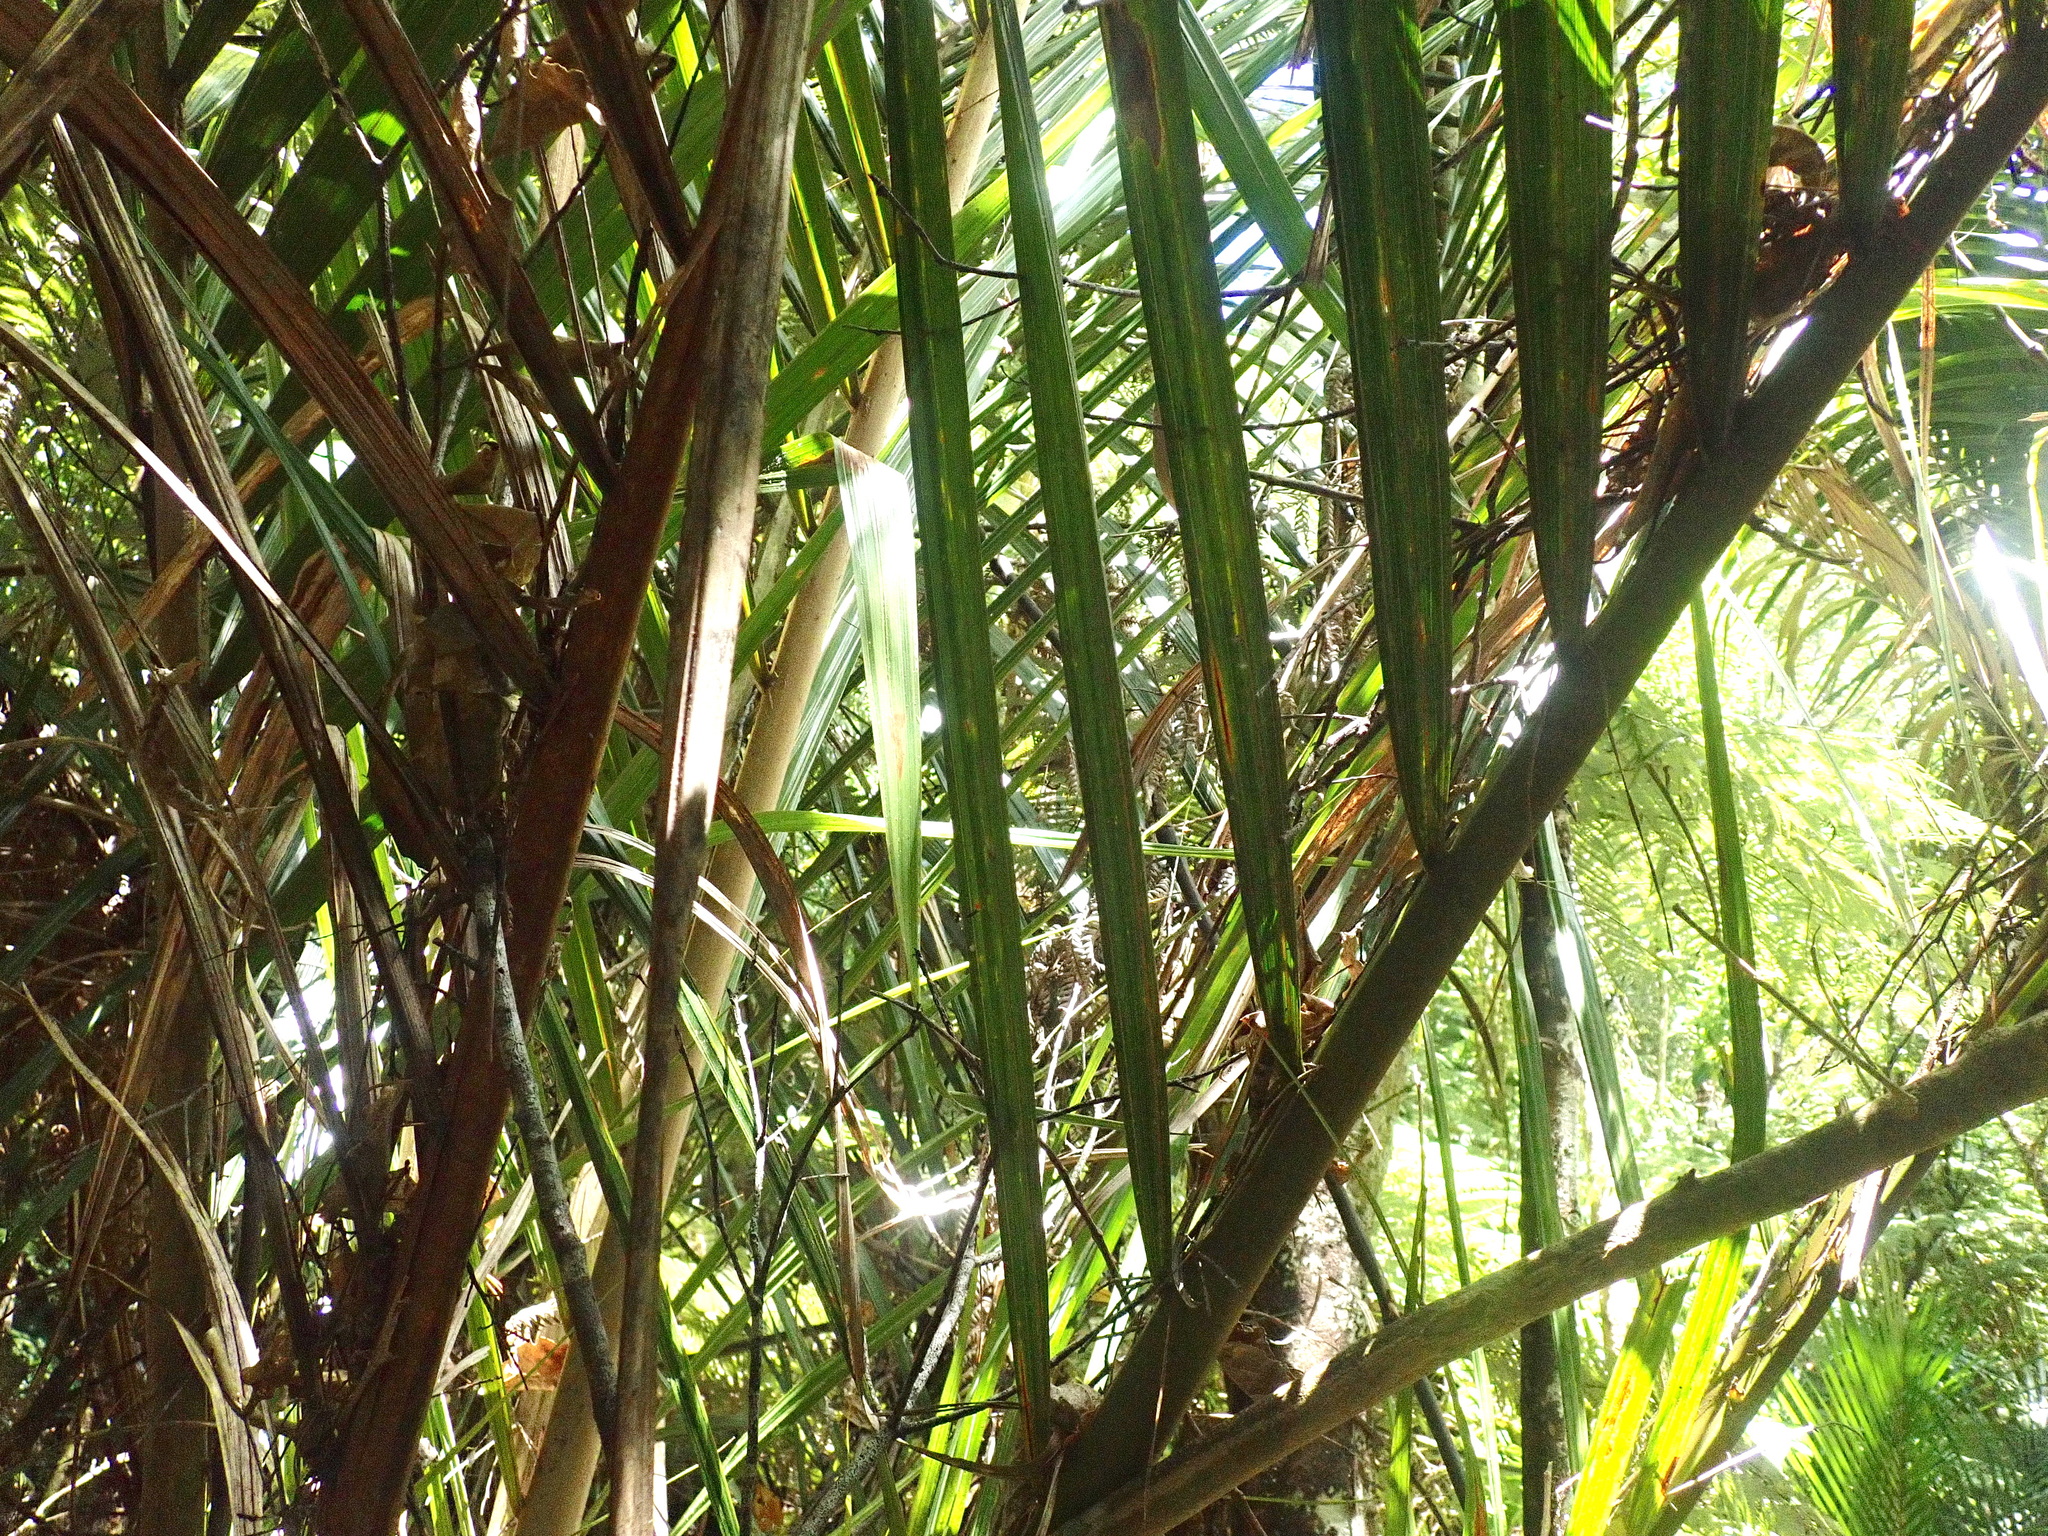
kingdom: Plantae
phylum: Tracheophyta
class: Liliopsida
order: Arecales
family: Arecaceae
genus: Rhopalostylis
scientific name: Rhopalostylis sapida
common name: Feather-duster palm
